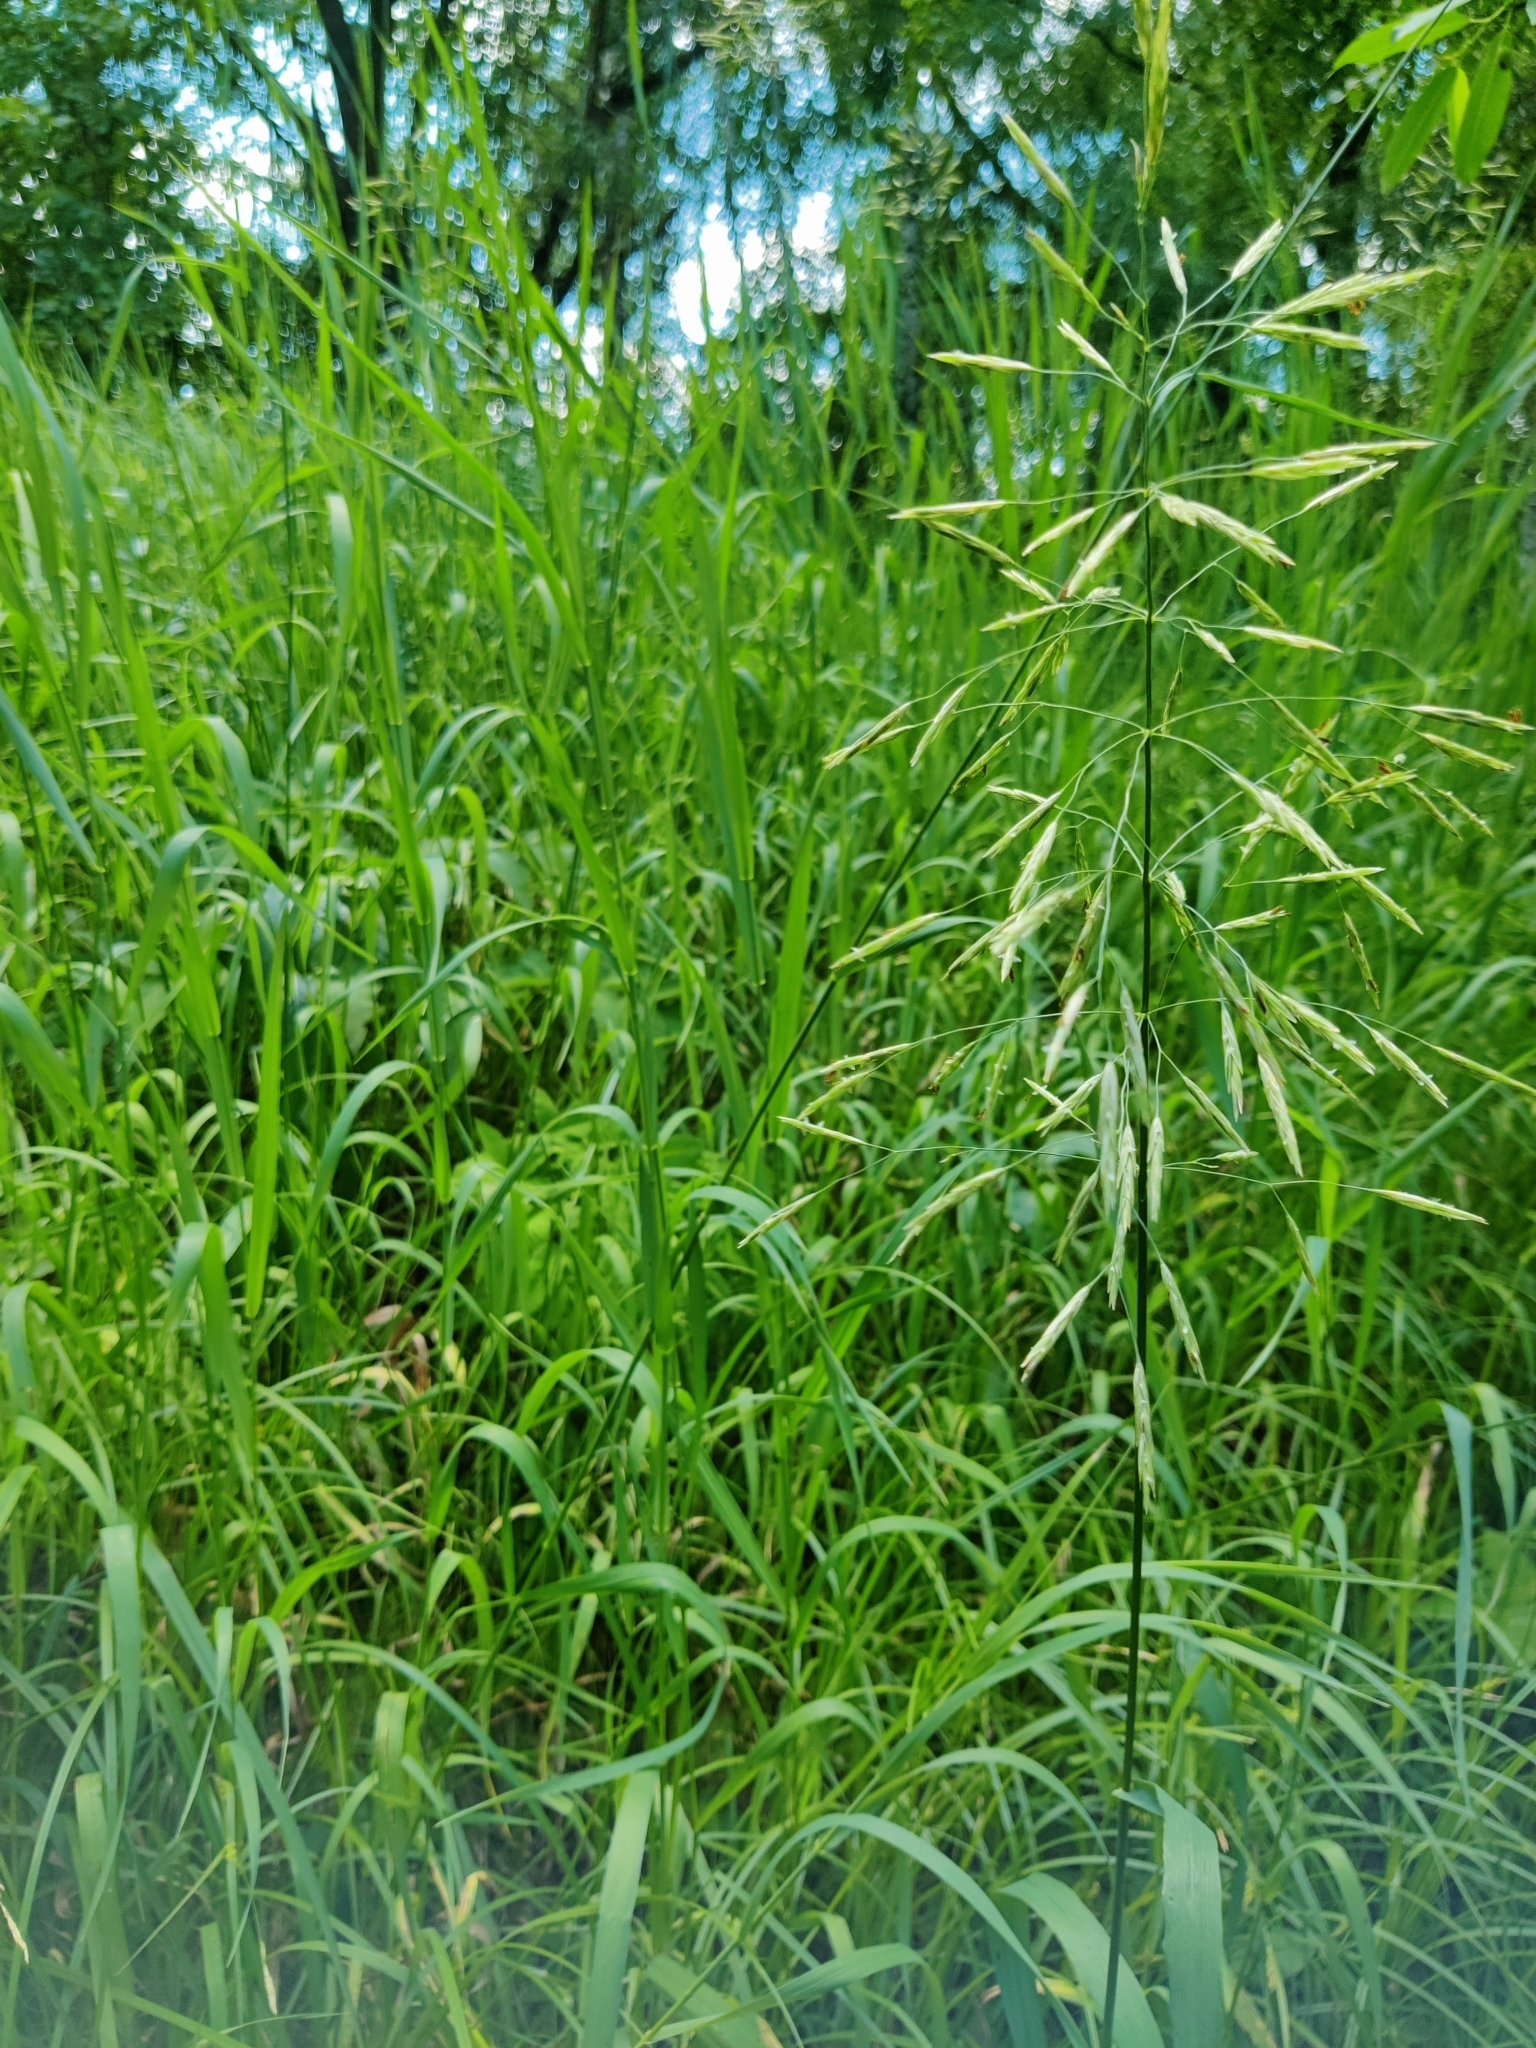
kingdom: Plantae
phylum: Tracheophyta
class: Liliopsida
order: Poales
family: Poaceae
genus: Bromus
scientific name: Bromus inermis
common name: Smooth brome
